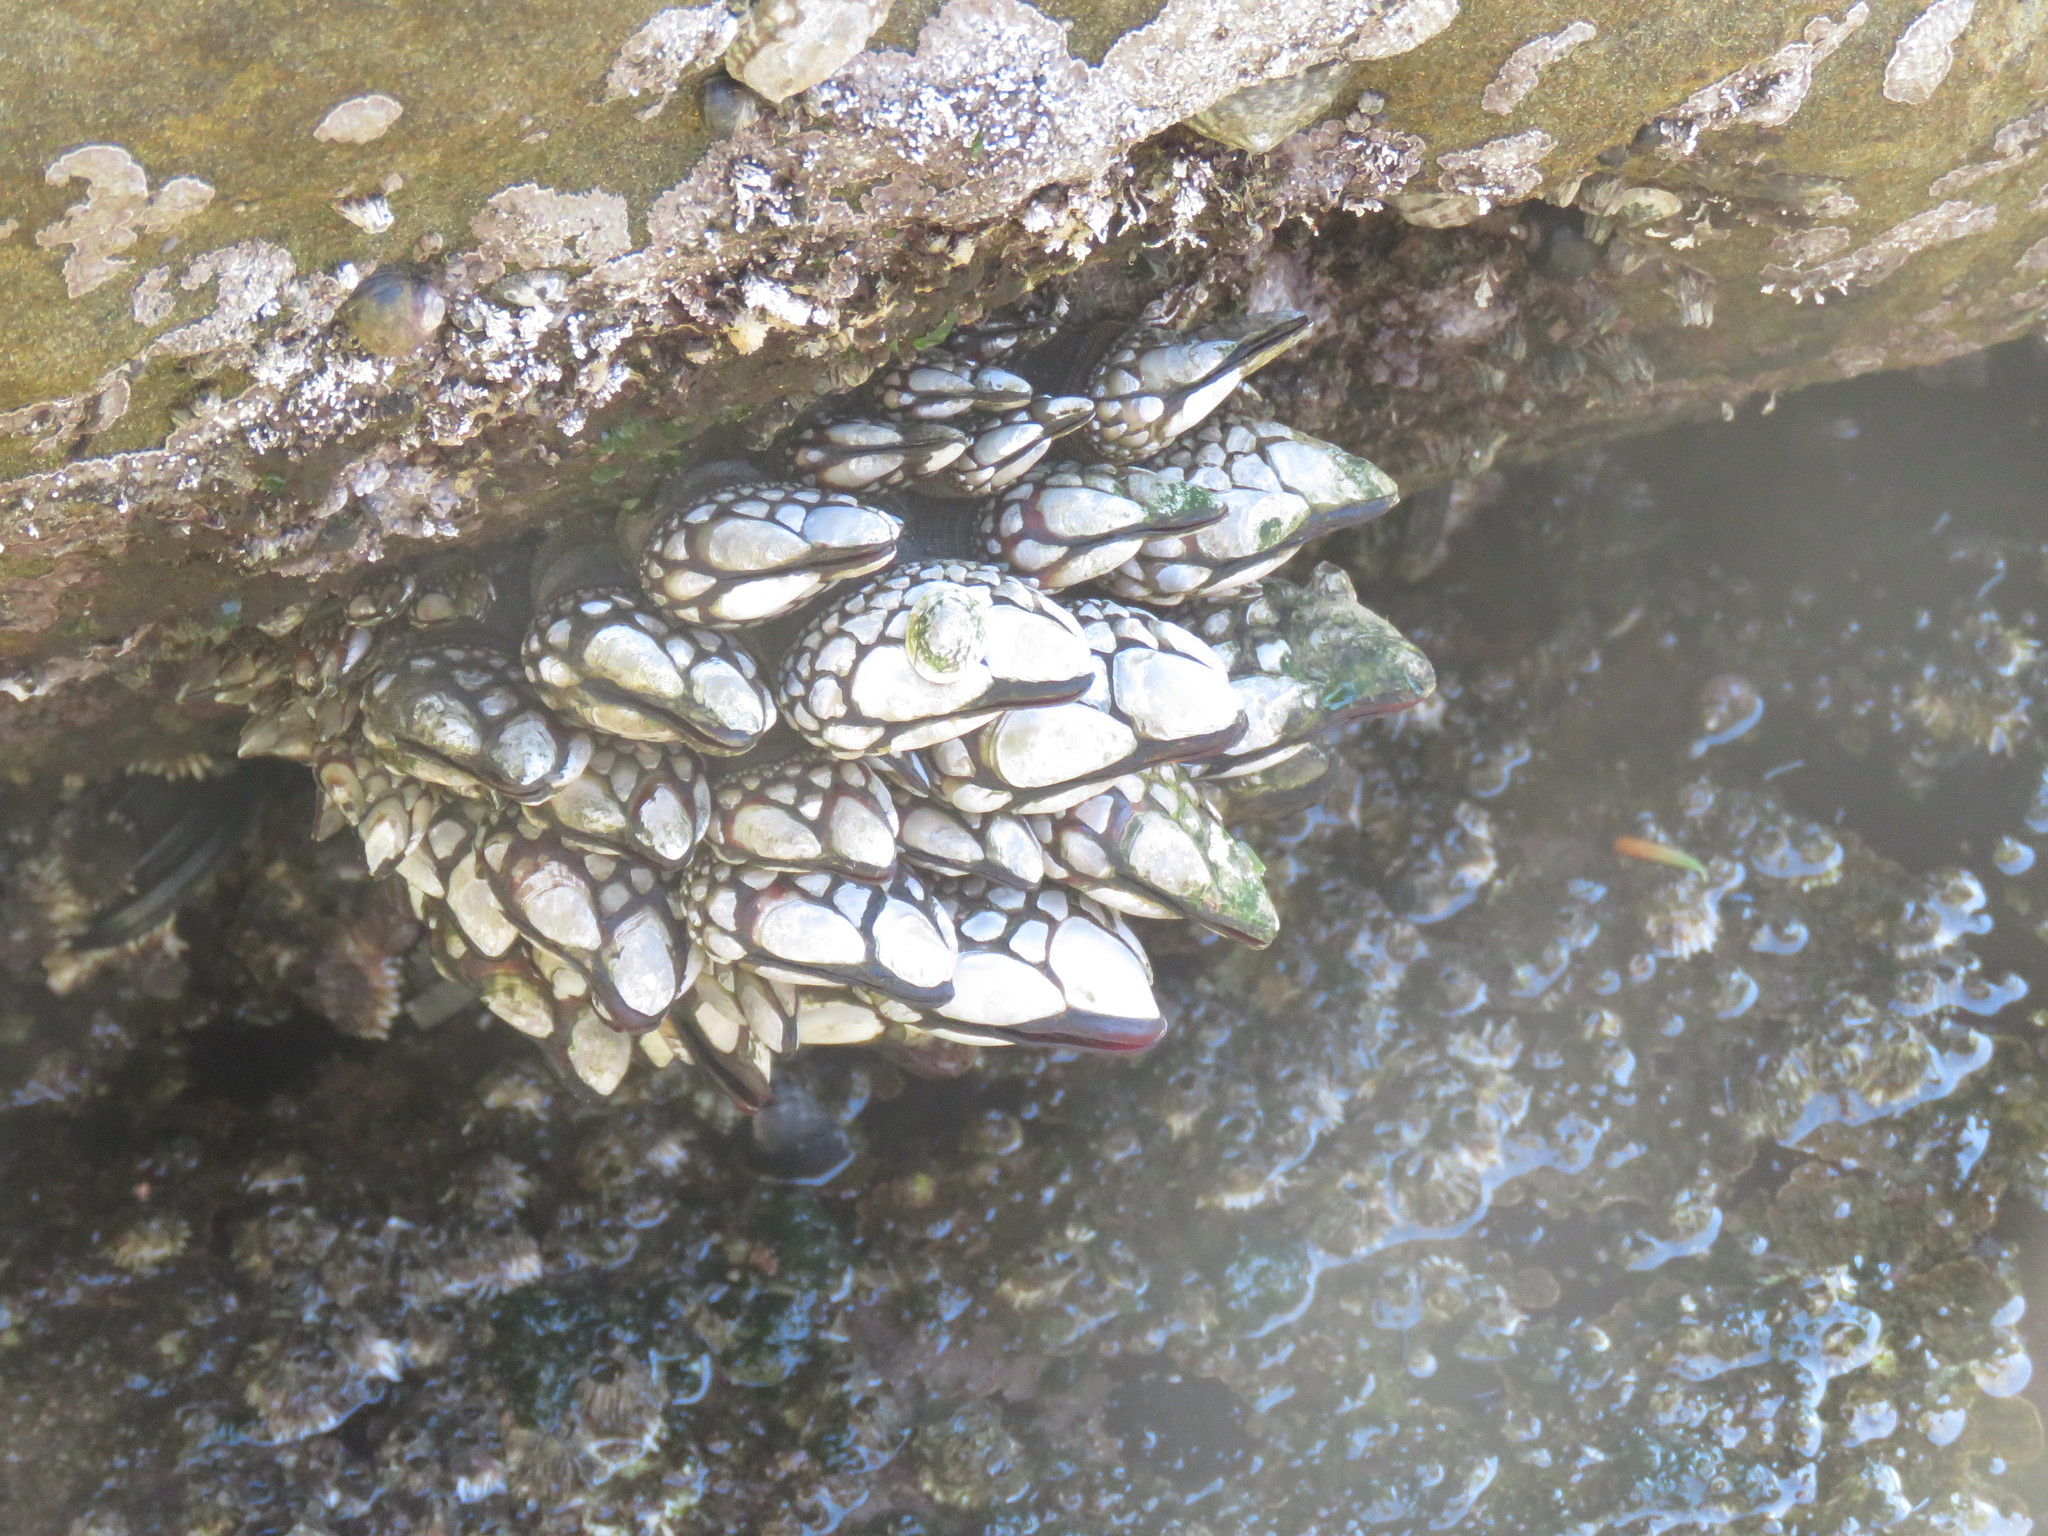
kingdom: Animalia
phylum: Arthropoda
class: Maxillopoda
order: Pedunculata
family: Pollicipedidae
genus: Pollicipes
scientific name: Pollicipes polymerus
